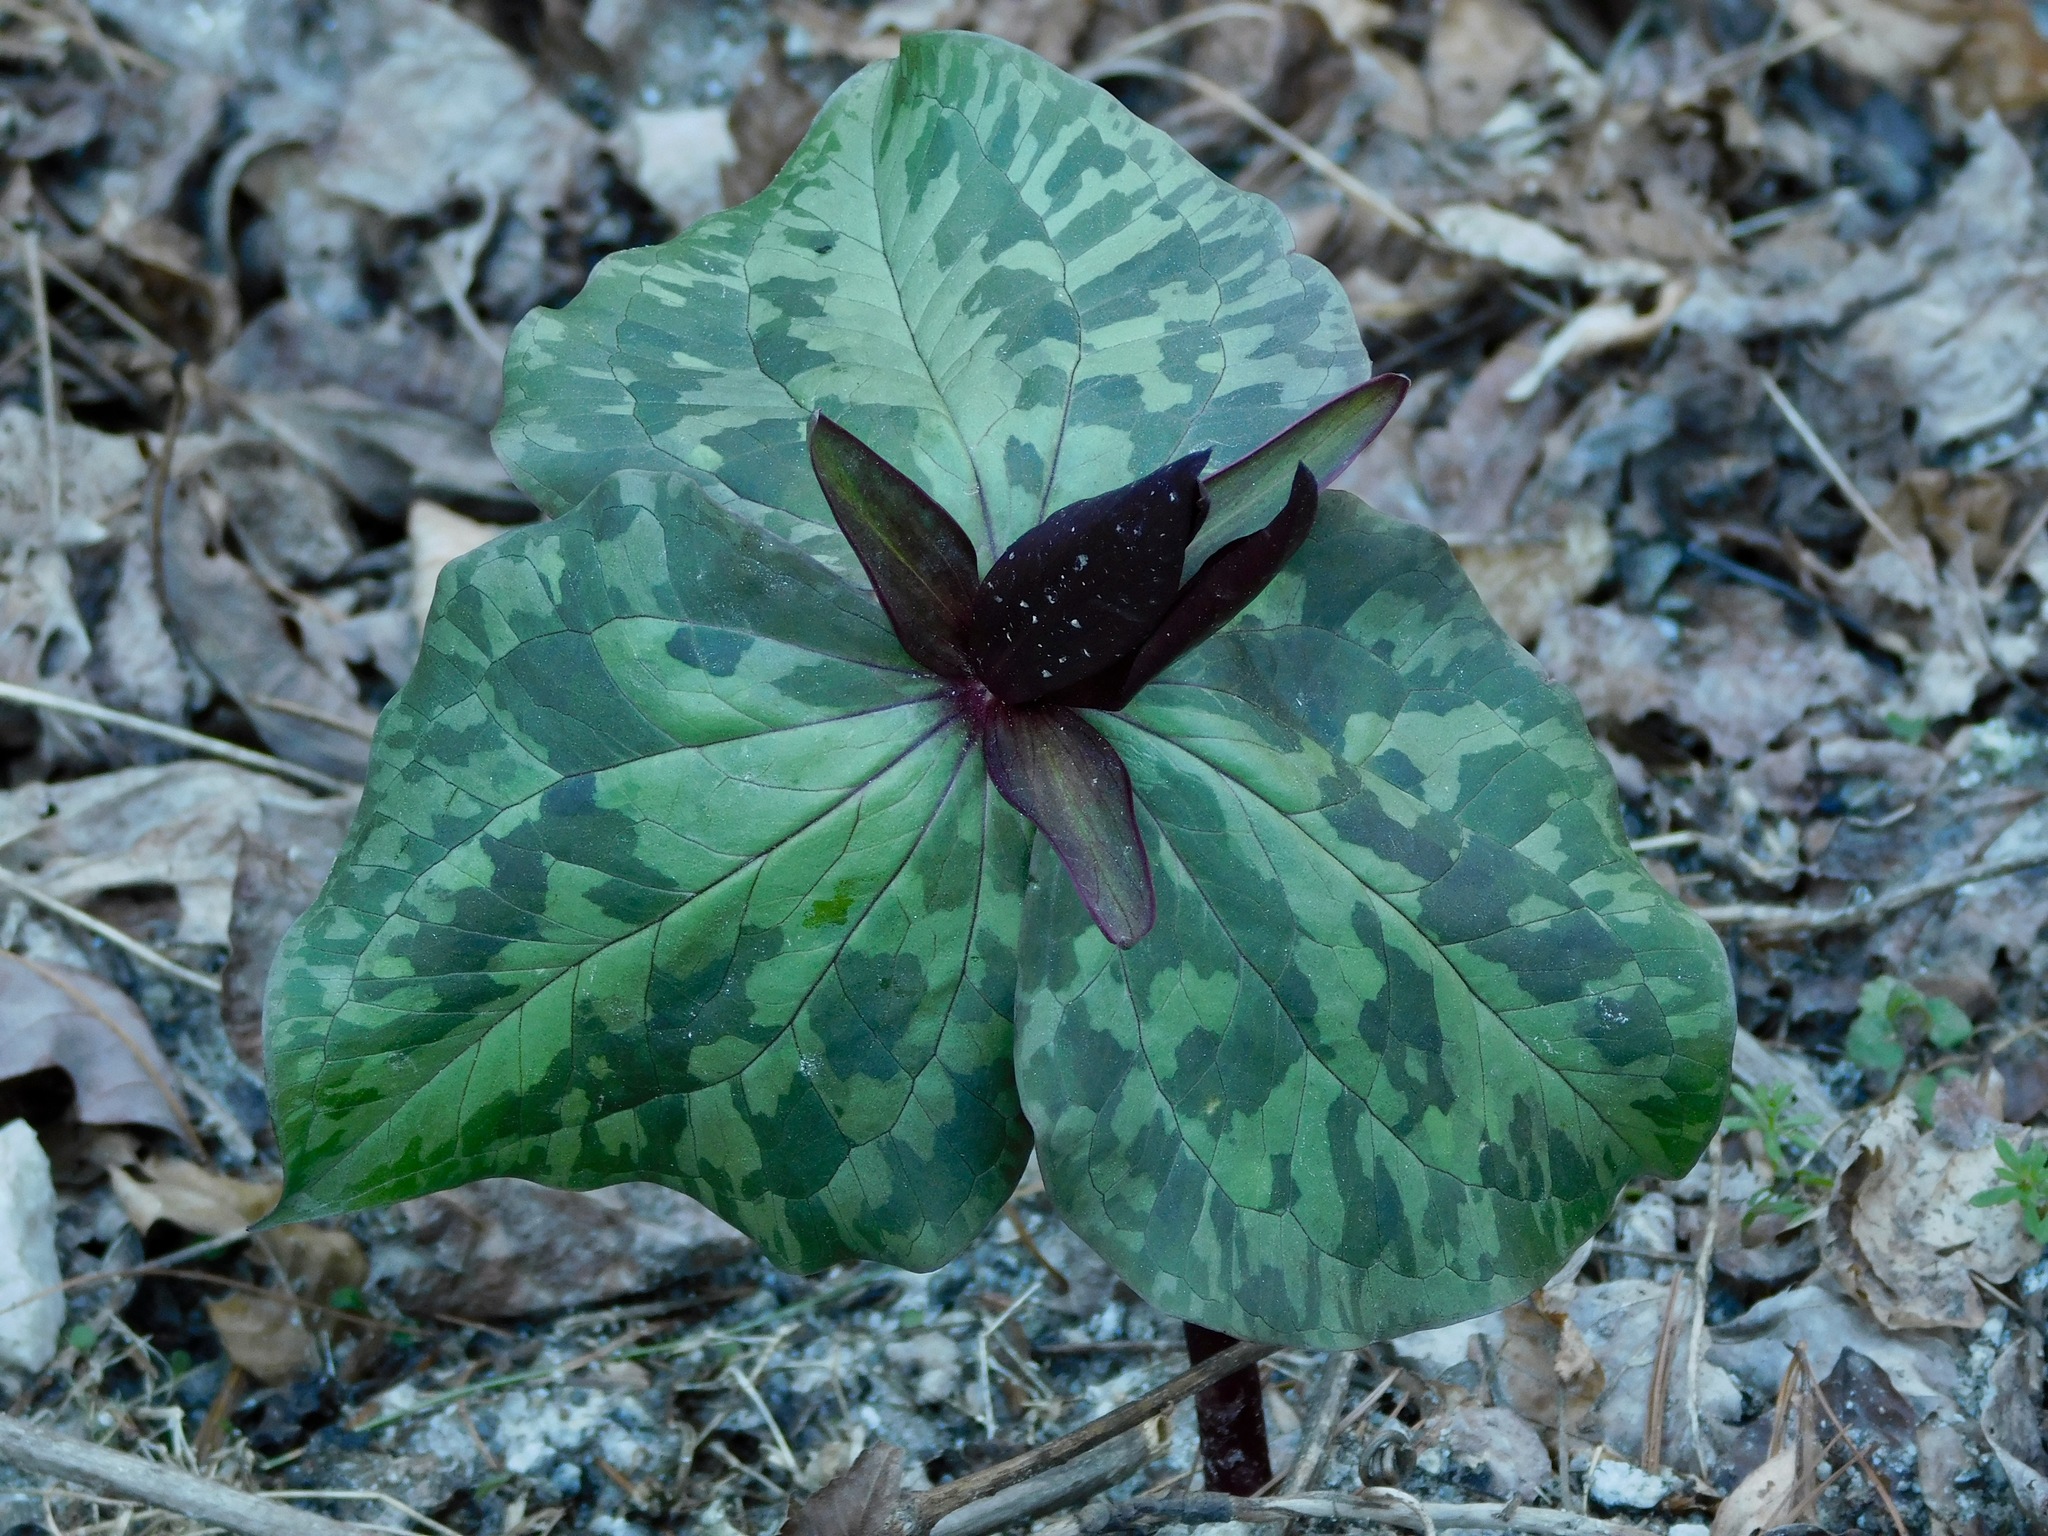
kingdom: Plantae
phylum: Tracheophyta
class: Liliopsida
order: Liliales
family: Melanthiaceae
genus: Trillium
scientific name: Trillium cuneatum
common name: Cuneate trillium
